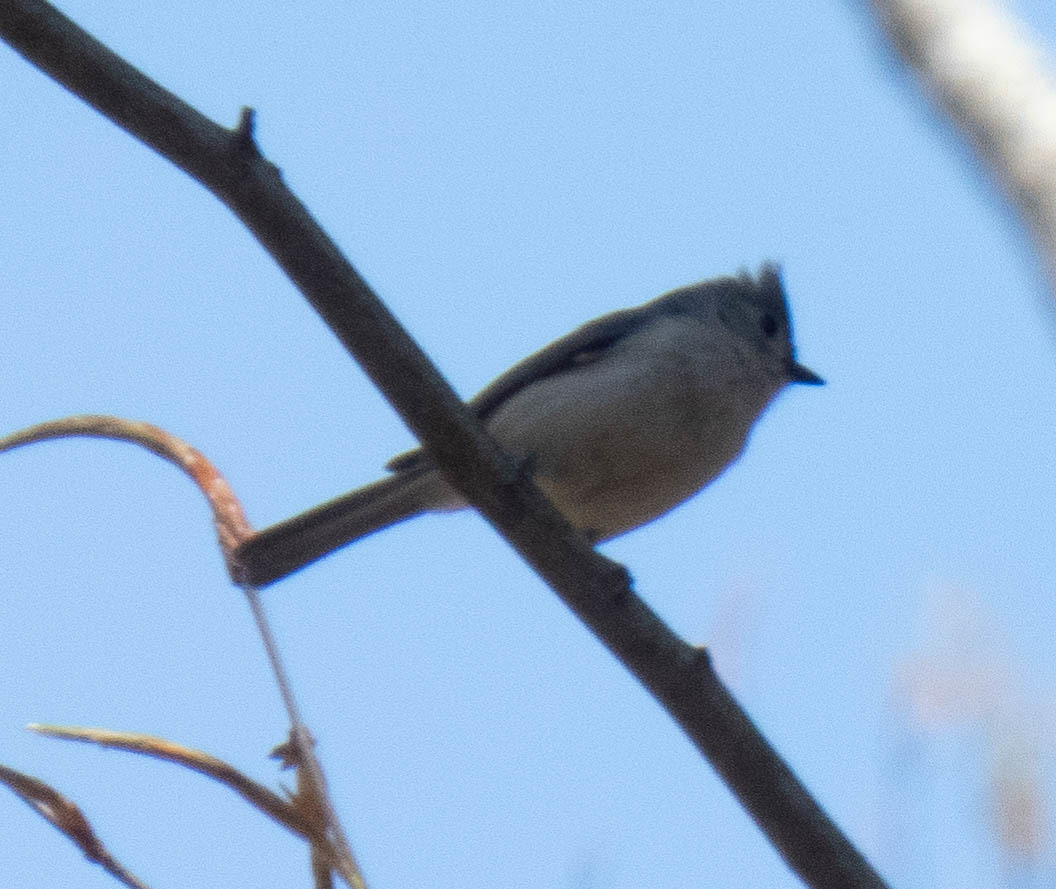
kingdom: Animalia
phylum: Chordata
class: Aves
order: Passeriformes
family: Paridae
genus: Baeolophus
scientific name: Baeolophus bicolor
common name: Tufted titmouse
